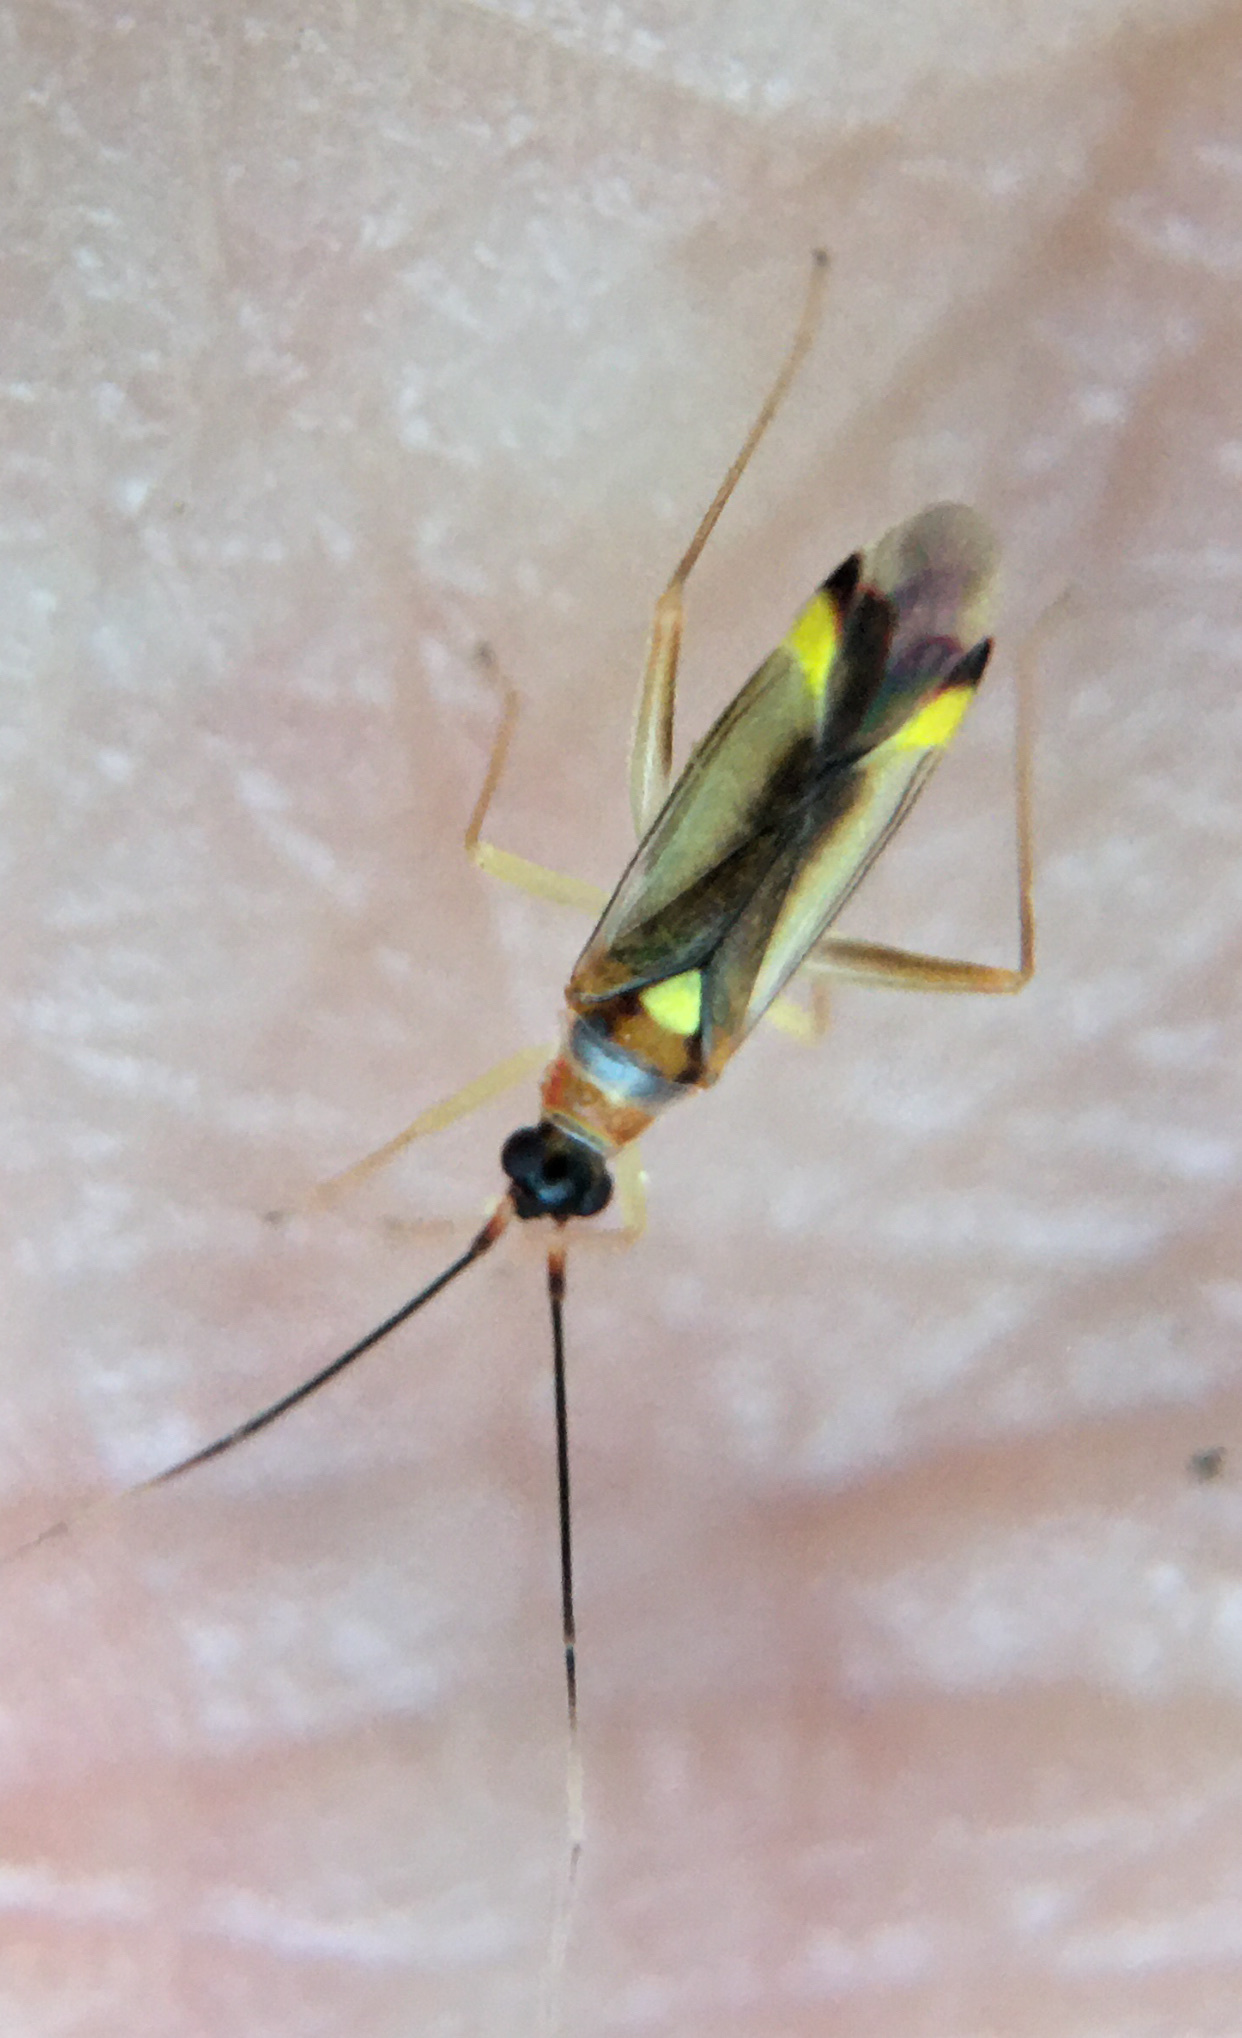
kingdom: Animalia
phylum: Arthropoda
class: Insecta
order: Hemiptera
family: Miridae
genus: Campyloneura
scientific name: Campyloneura virgula
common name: Predatory bug
